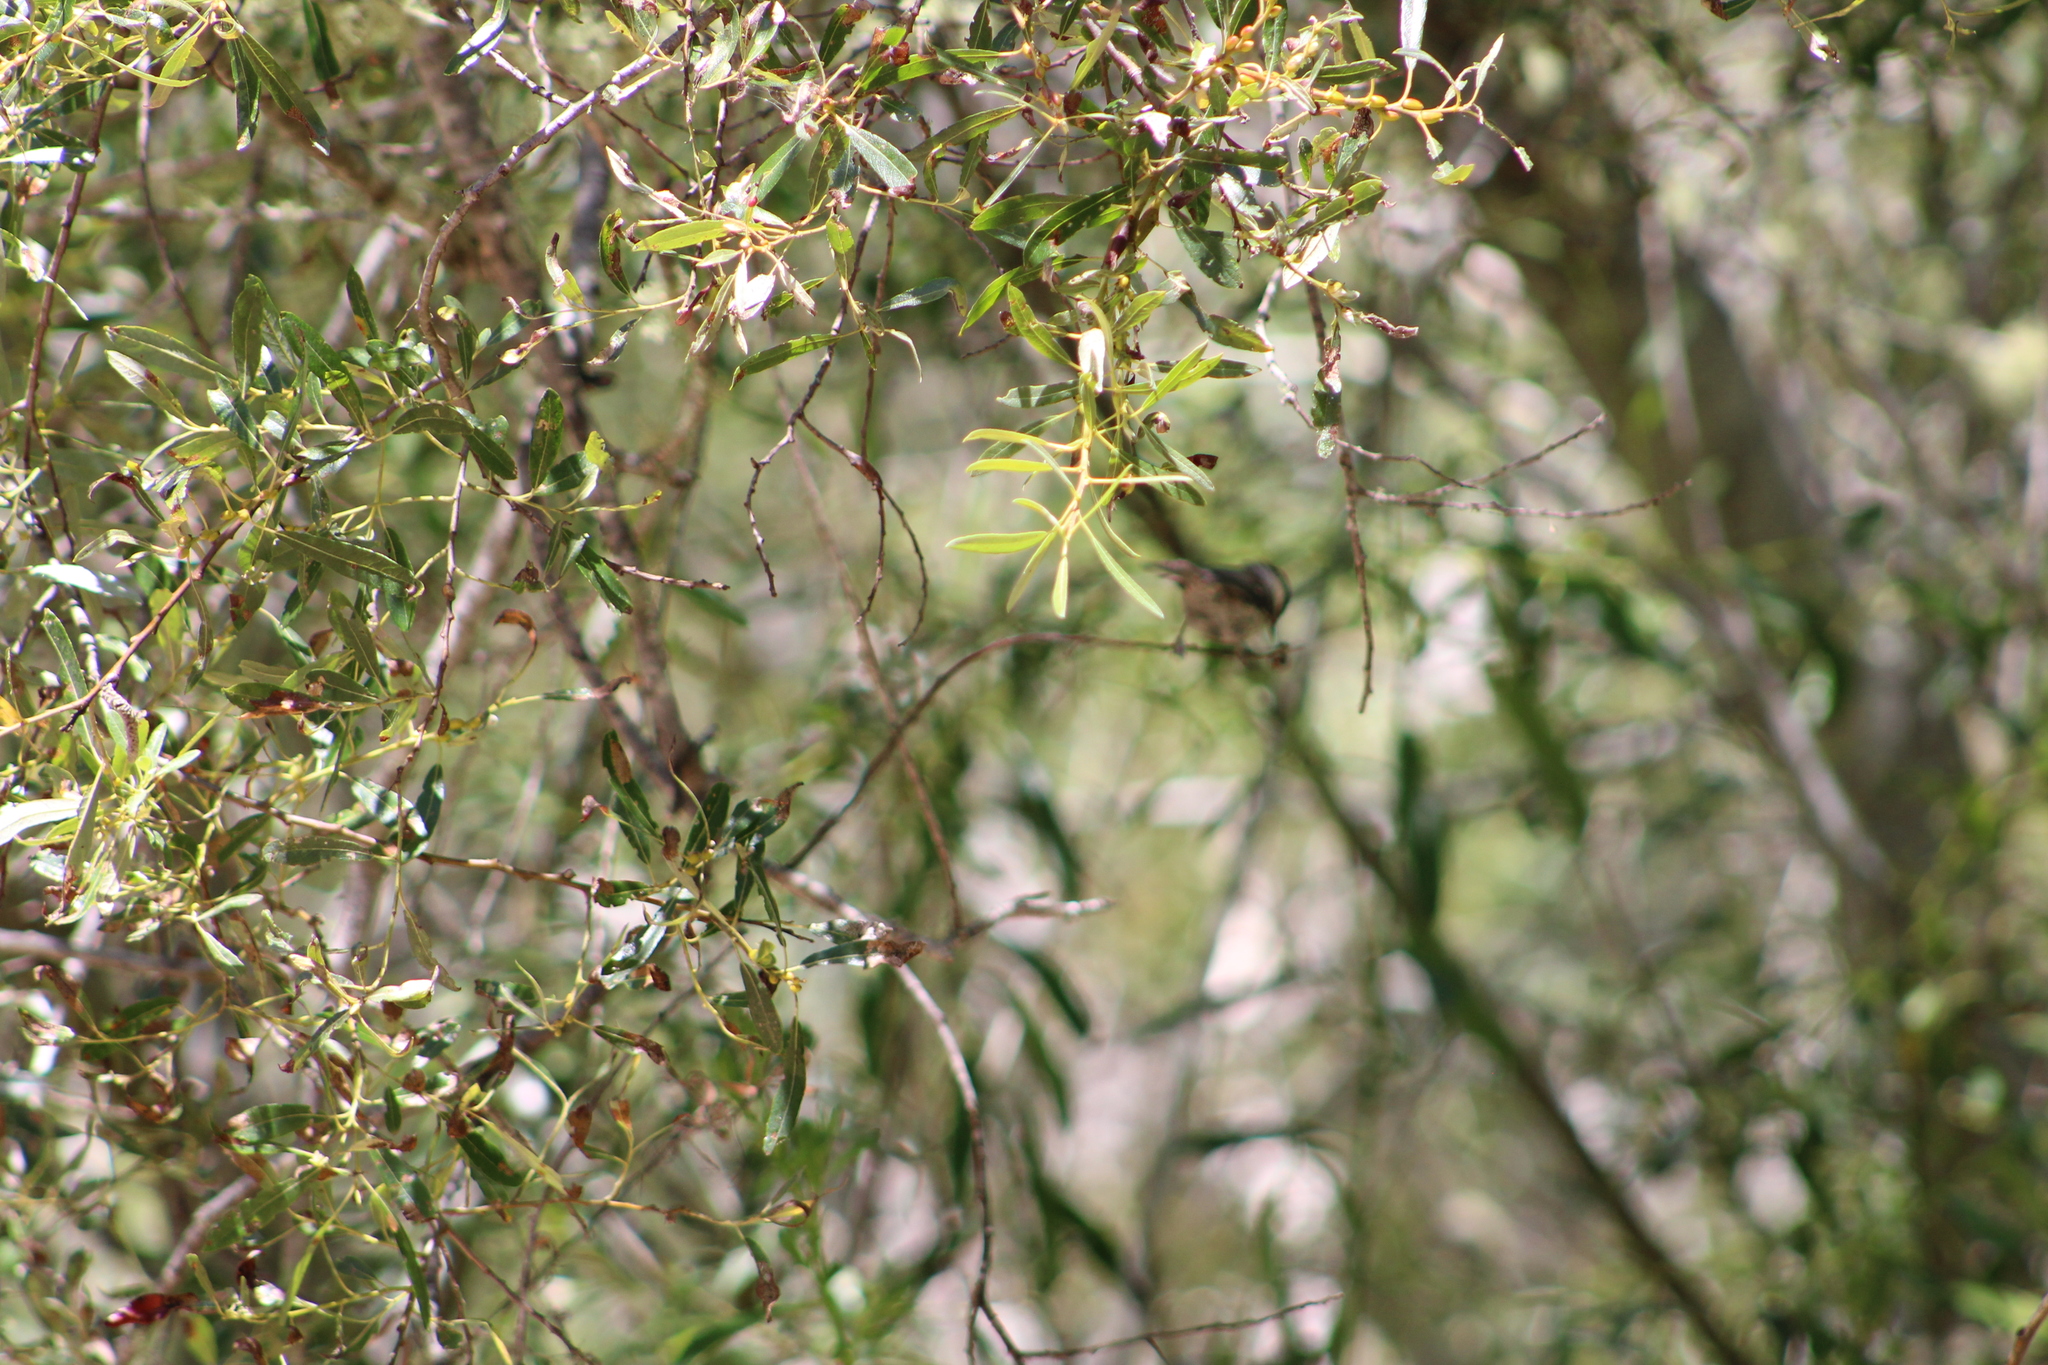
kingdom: Animalia
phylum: Chordata
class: Aves
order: Passeriformes
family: Paridae
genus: Poecile
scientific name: Poecile rufescens
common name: Chestnut-backed chickadee
